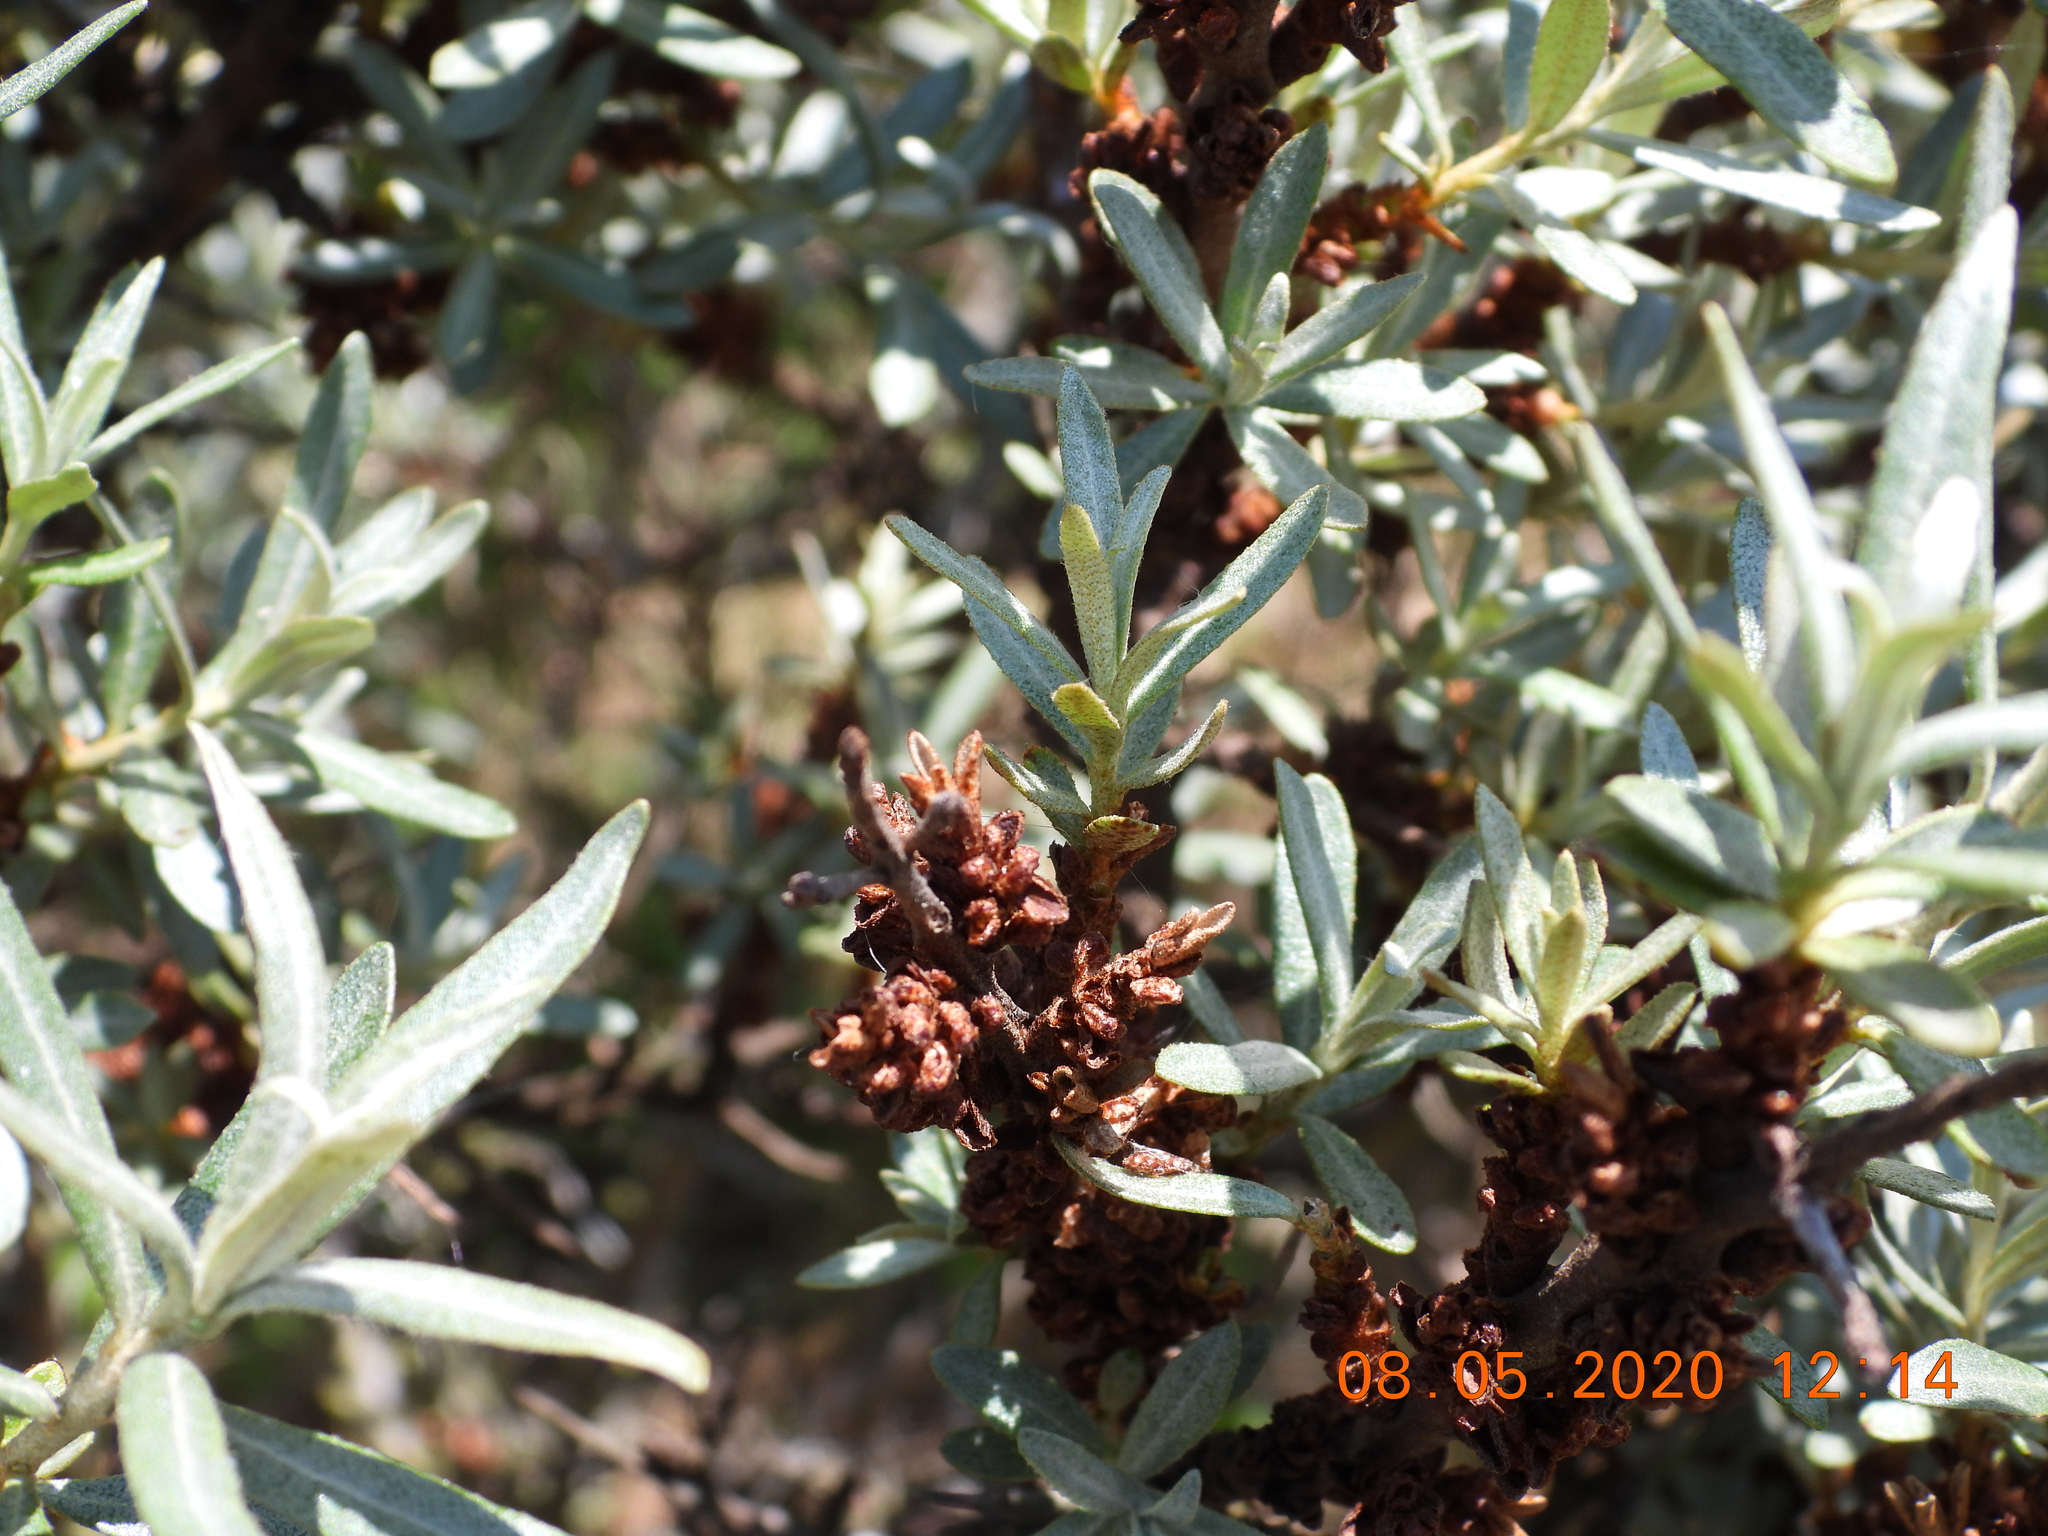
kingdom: Plantae
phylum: Tracheophyta
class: Magnoliopsida
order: Rosales
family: Elaeagnaceae
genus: Hippophae
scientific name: Hippophae rhamnoides
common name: Sea-buckthorn
